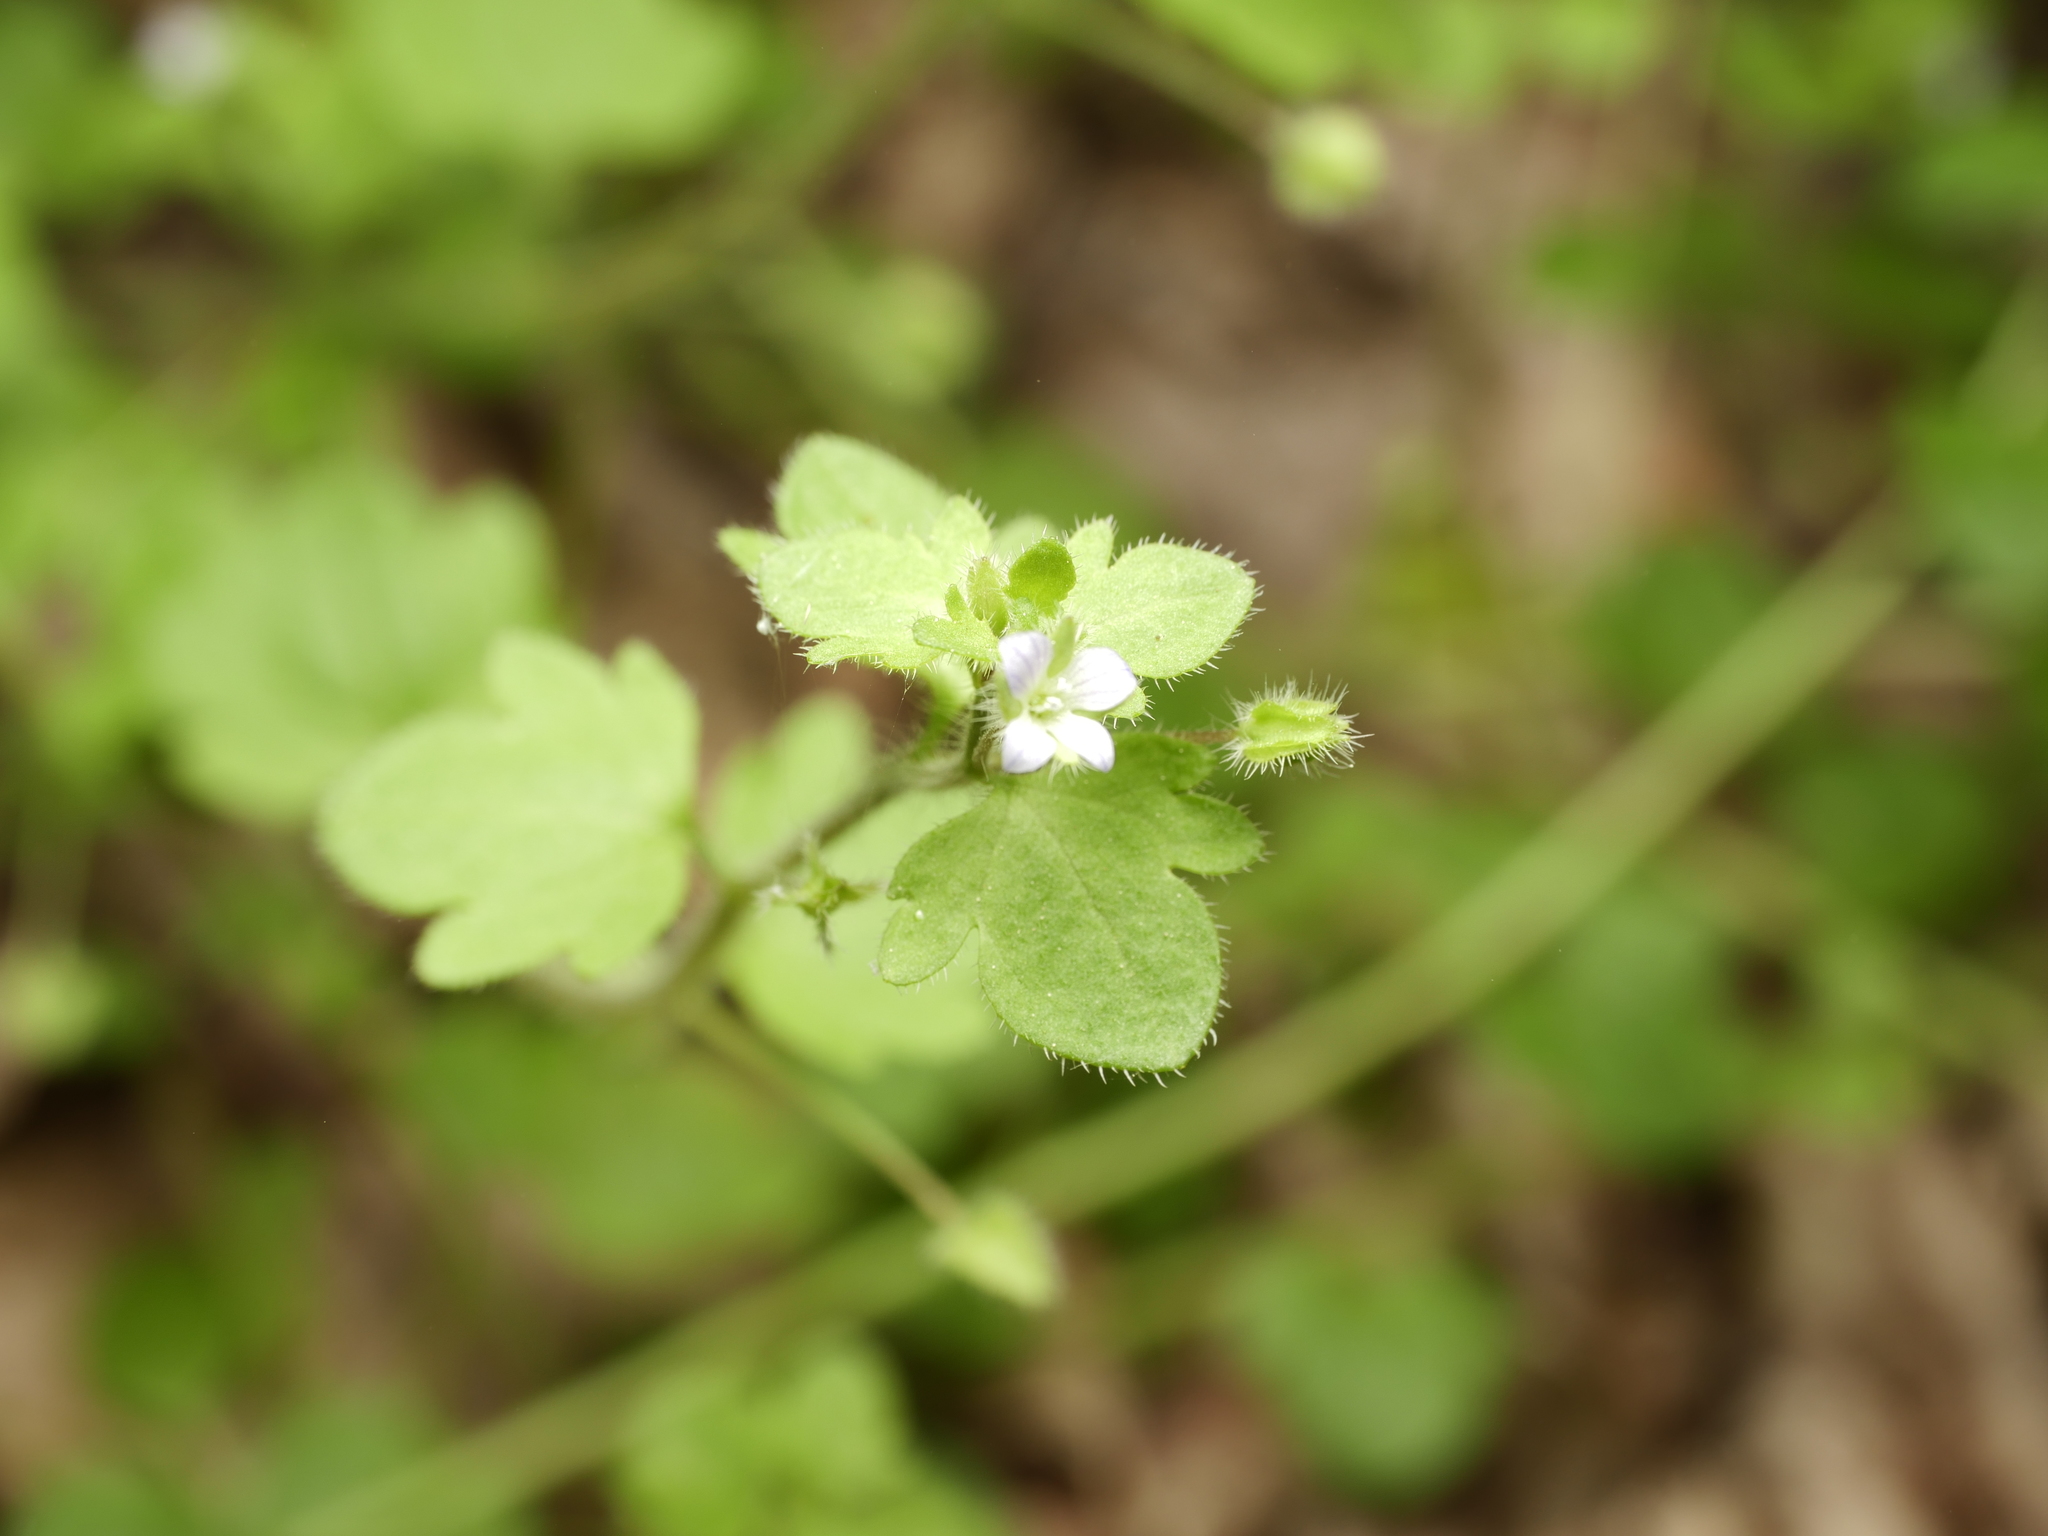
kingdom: Plantae
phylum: Tracheophyta
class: Magnoliopsida
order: Lamiales
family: Plantaginaceae
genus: Veronica
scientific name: Veronica sublobata
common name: False ivy-leaved speedwell
